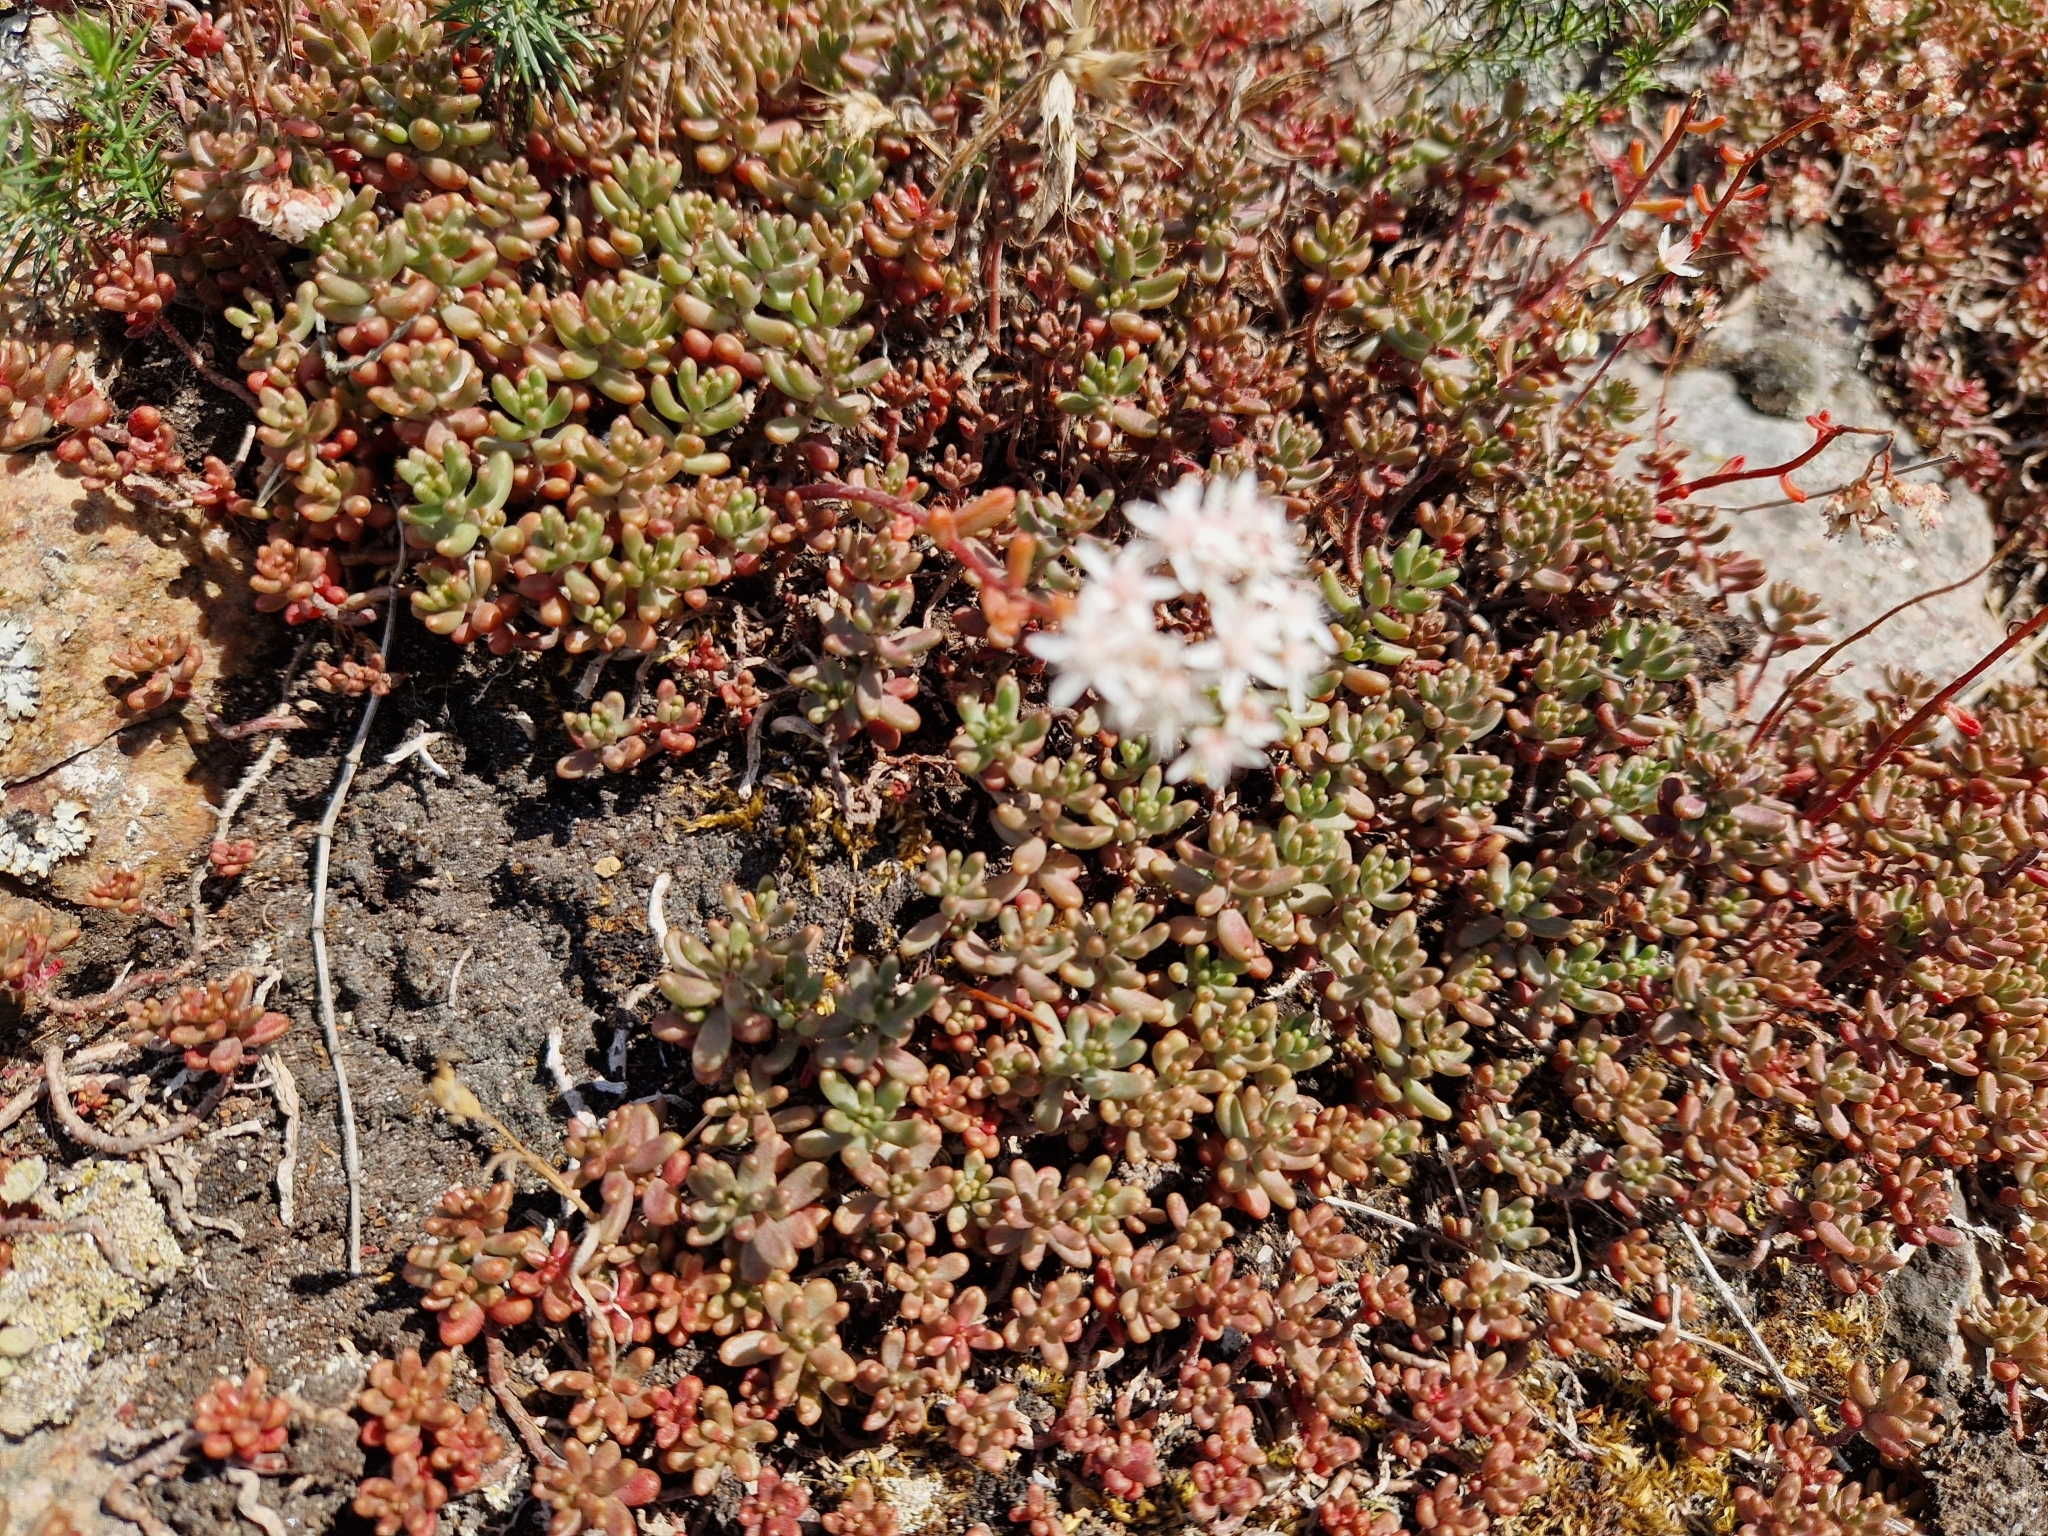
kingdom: Plantae
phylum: Tracheophyta
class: Magnoliopsida
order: Saxifragales
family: Crassulaceae
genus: Sedum
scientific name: Sedum album
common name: White stonecrop
